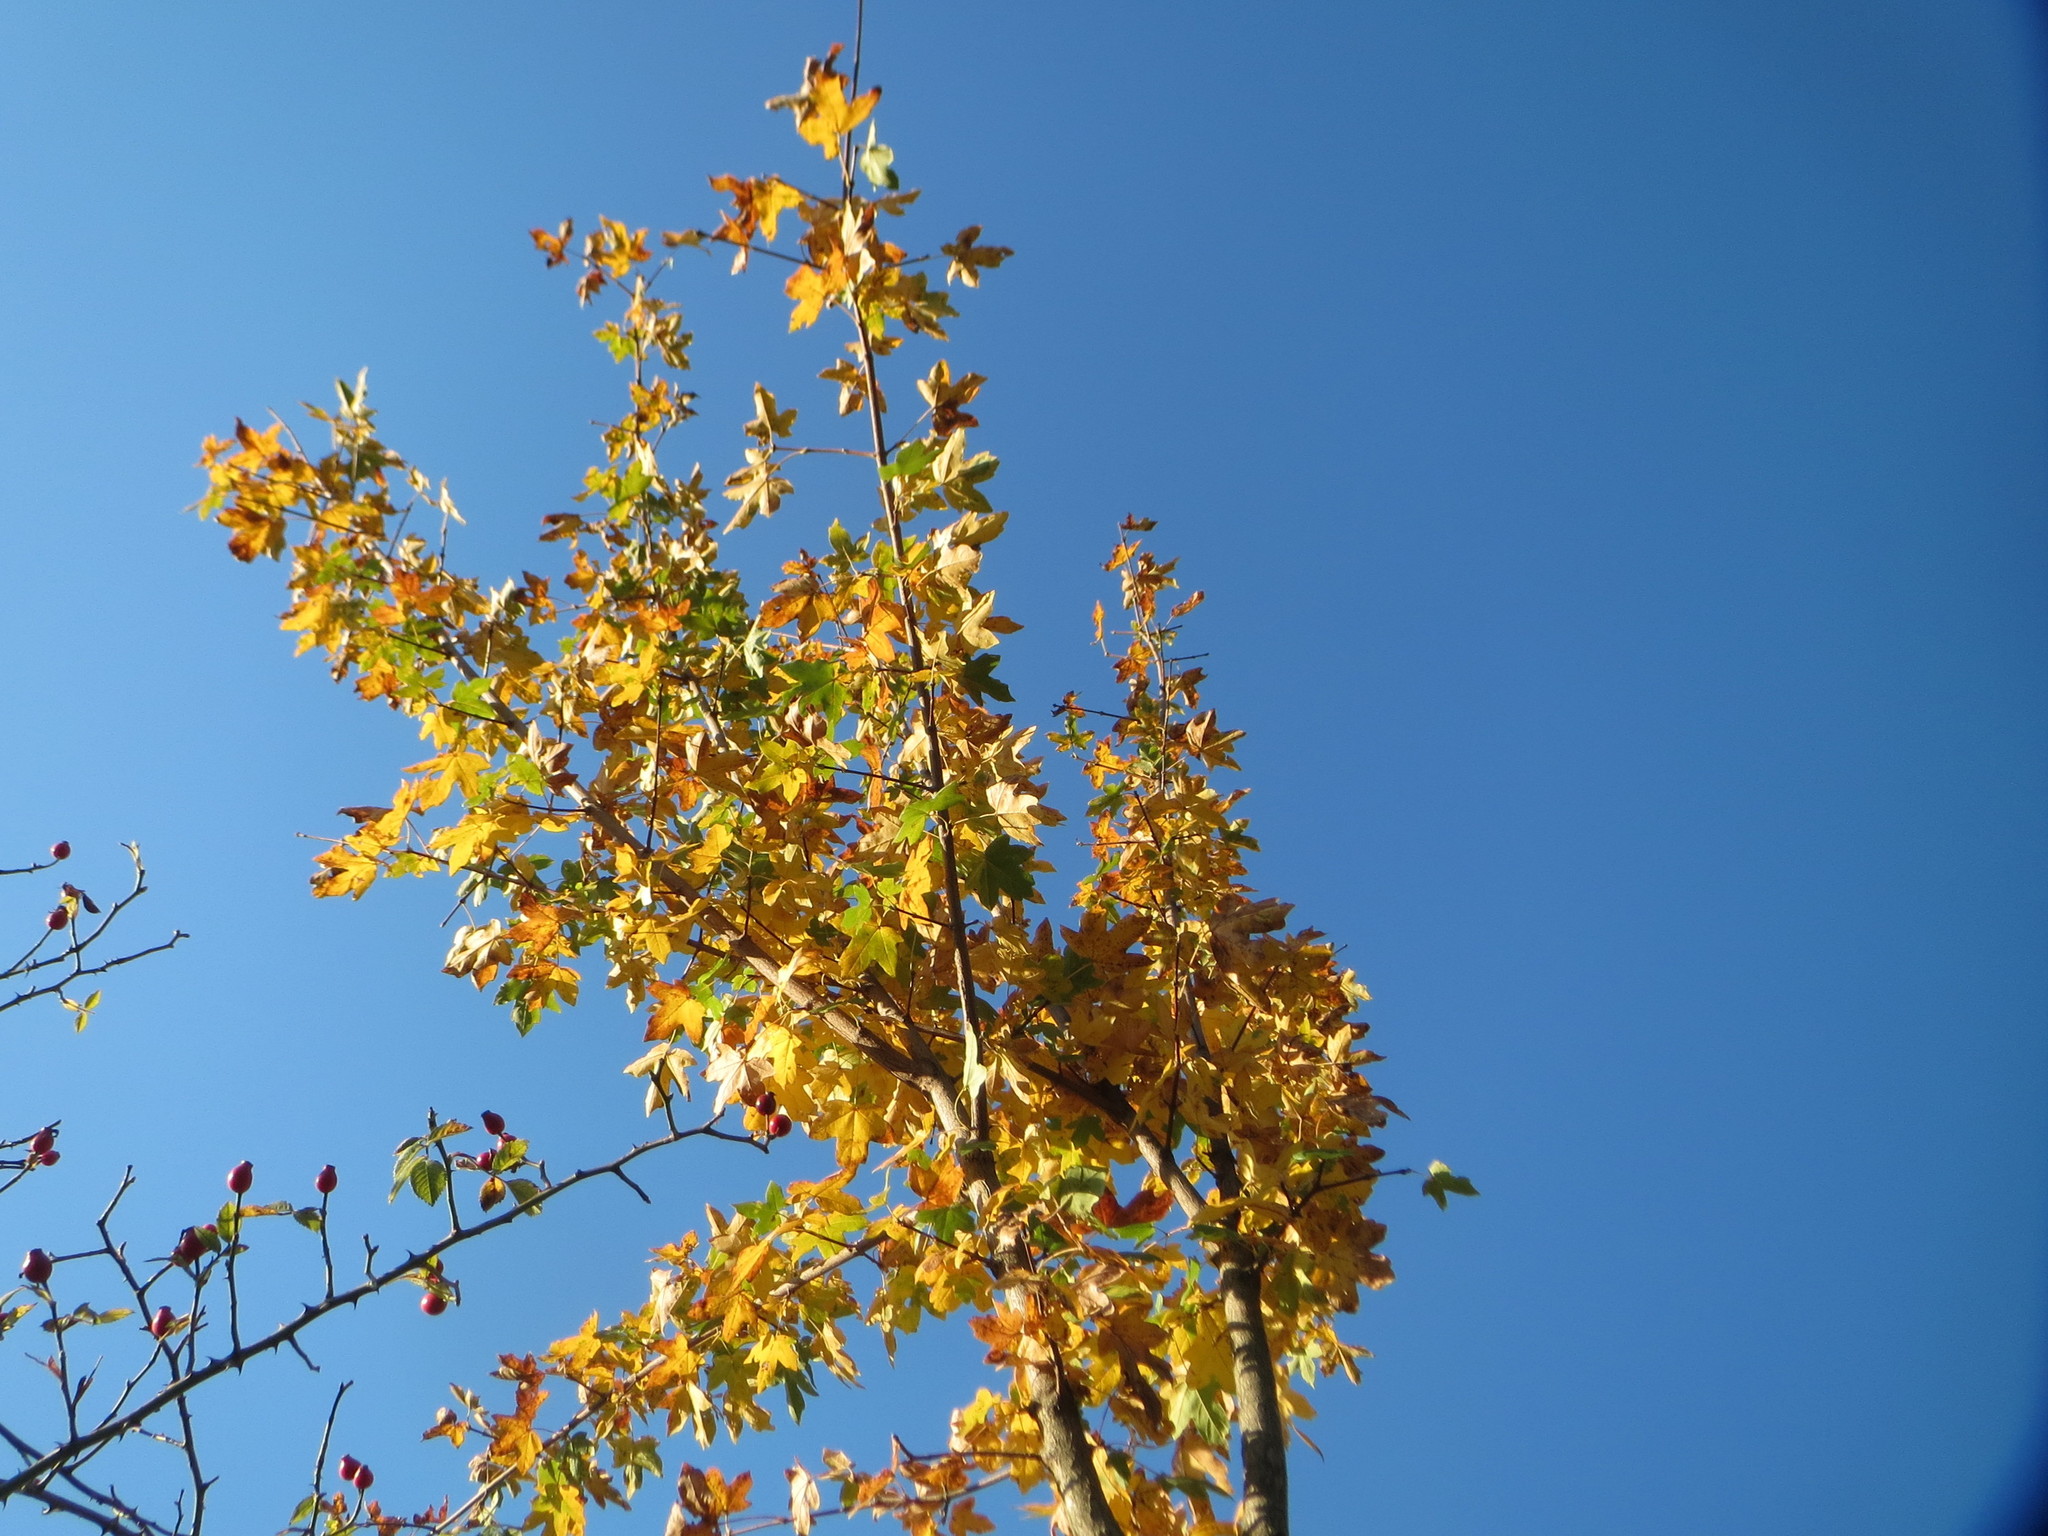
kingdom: Plantae
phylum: Tracheophyta
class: Magnoliopsida
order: Sapindales
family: Sapindaceae
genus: Acer
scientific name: Acer campestre
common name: Field maple
